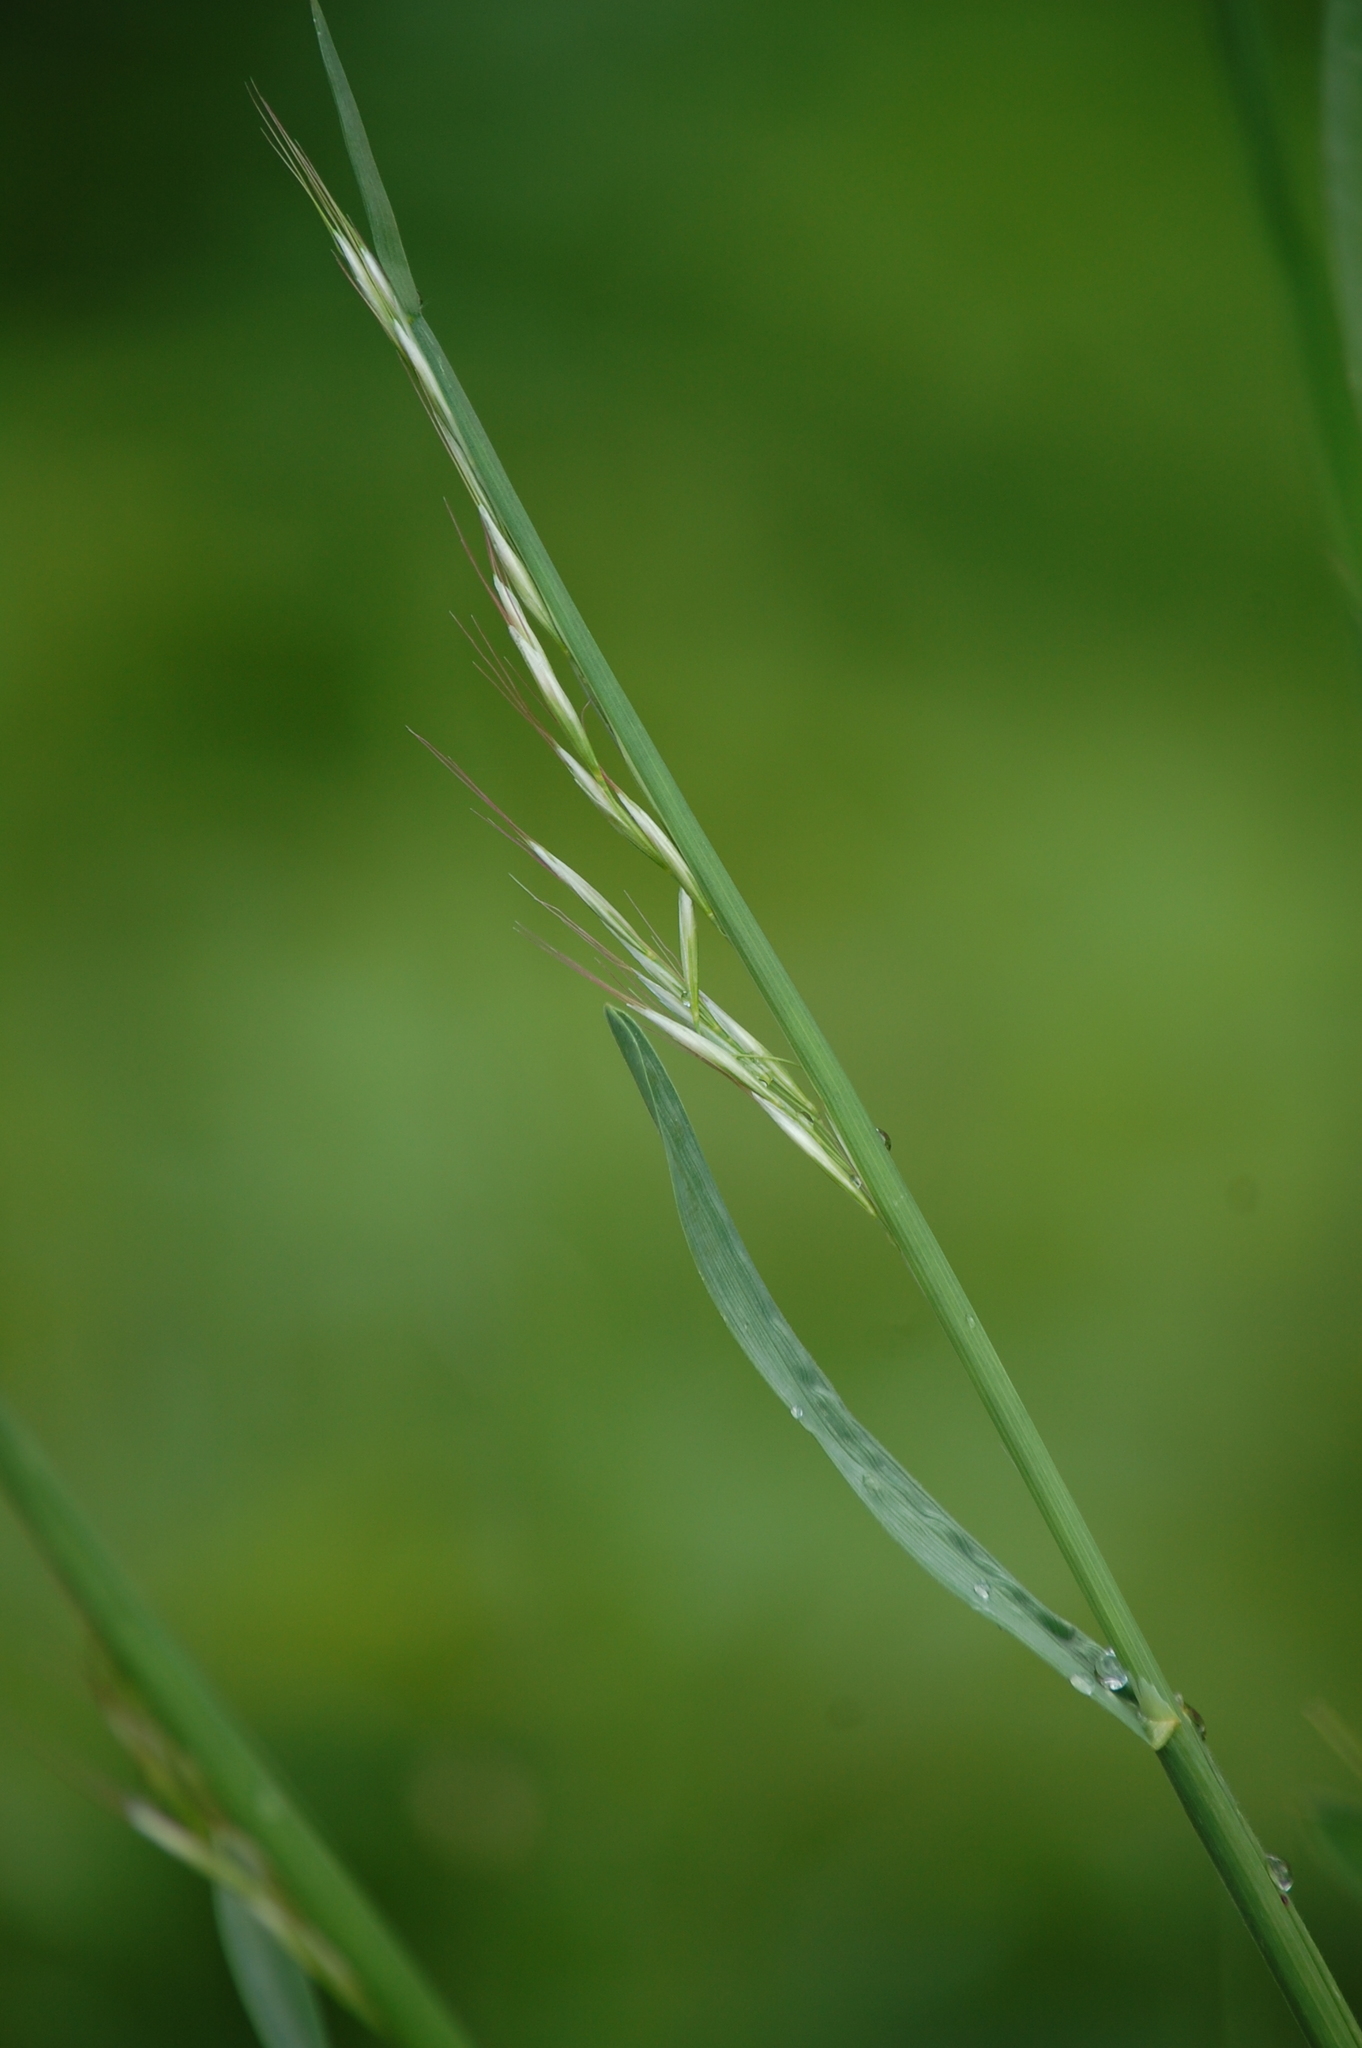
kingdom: Plantae
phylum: Tracheophyta
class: Liliopsida
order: Poales
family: Poaceae
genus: Avenula
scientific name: Avenula pubescens
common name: Downy alpine oatgrass
